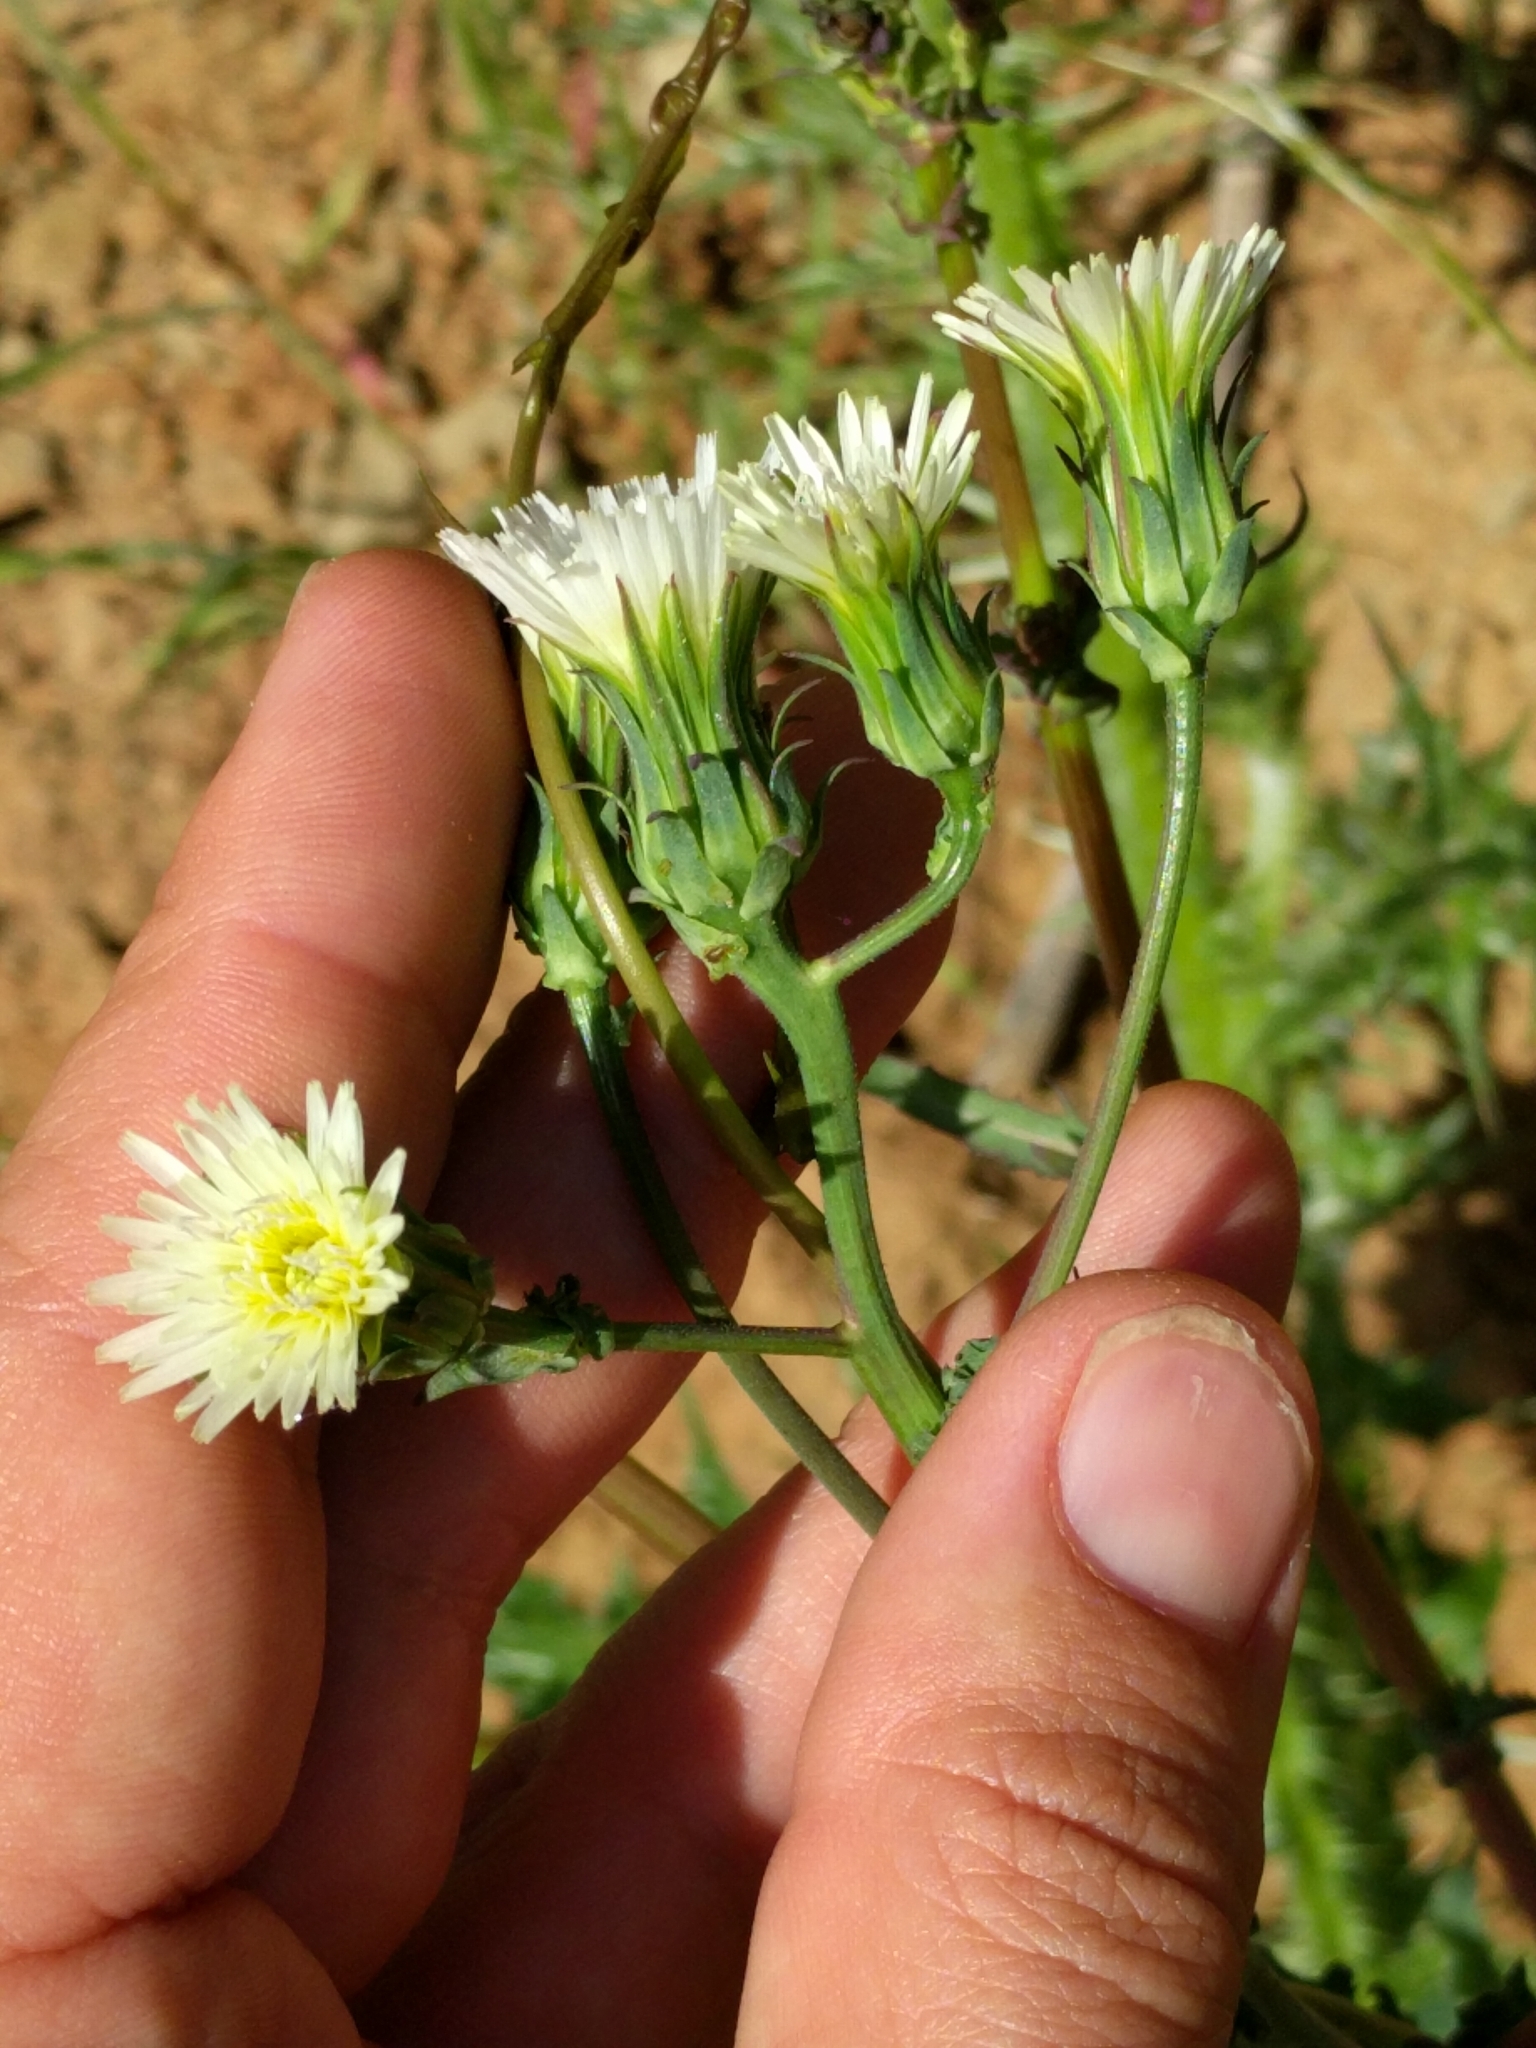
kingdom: Plantae
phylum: Tracheophyta
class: Magnoliopsida
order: Asterales
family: Asteraceae
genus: Rafinesquia
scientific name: Rafinesquia californica
